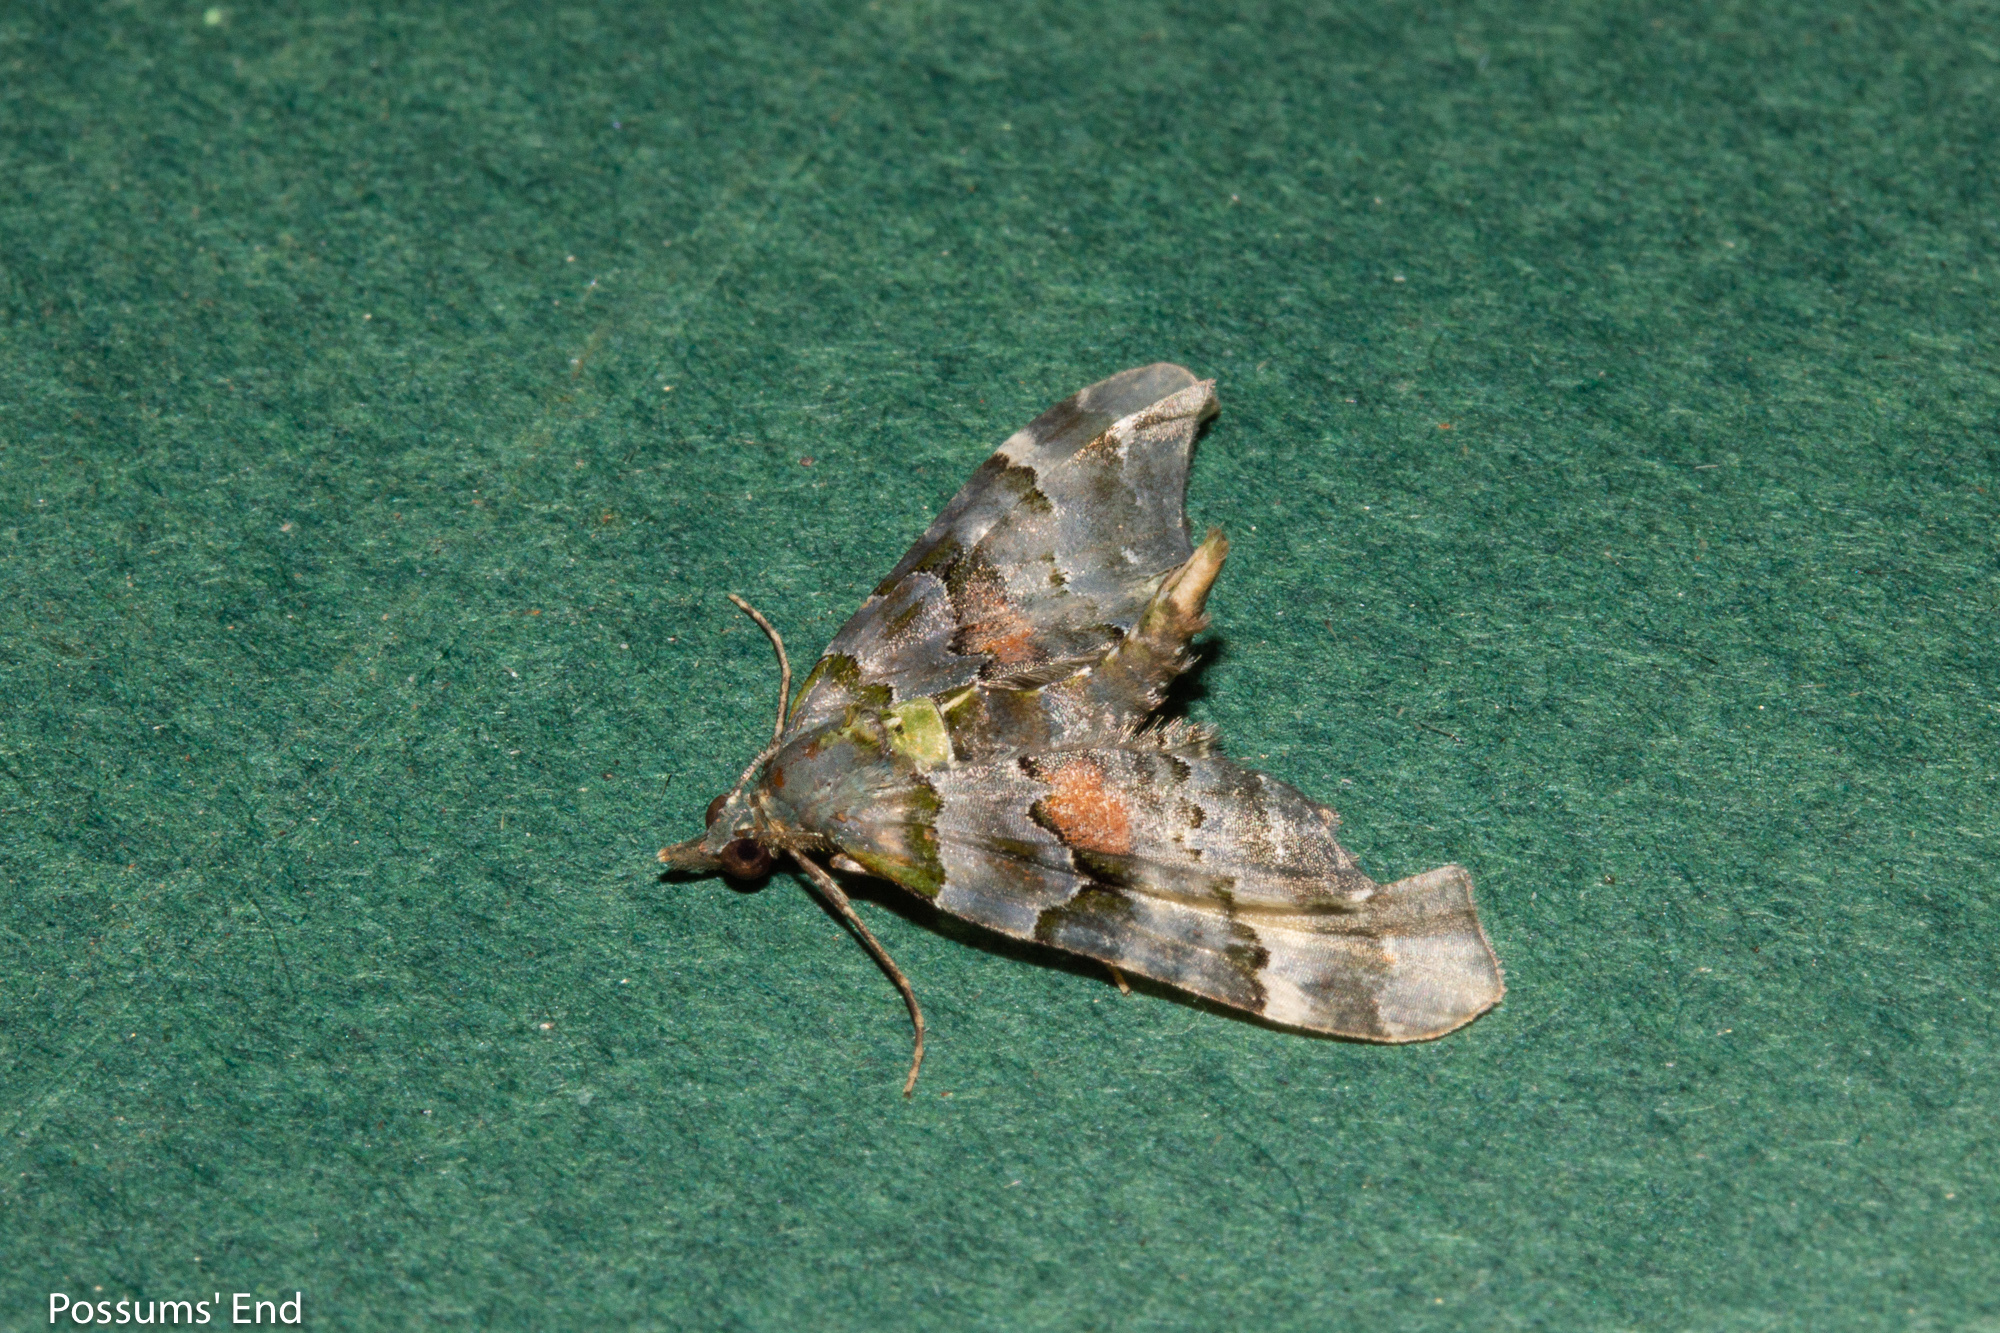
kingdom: Animalia
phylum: Arthropoda
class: Insecta
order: Lepidoptera
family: Geometridae
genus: Elvia
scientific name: Elvia glaucata
